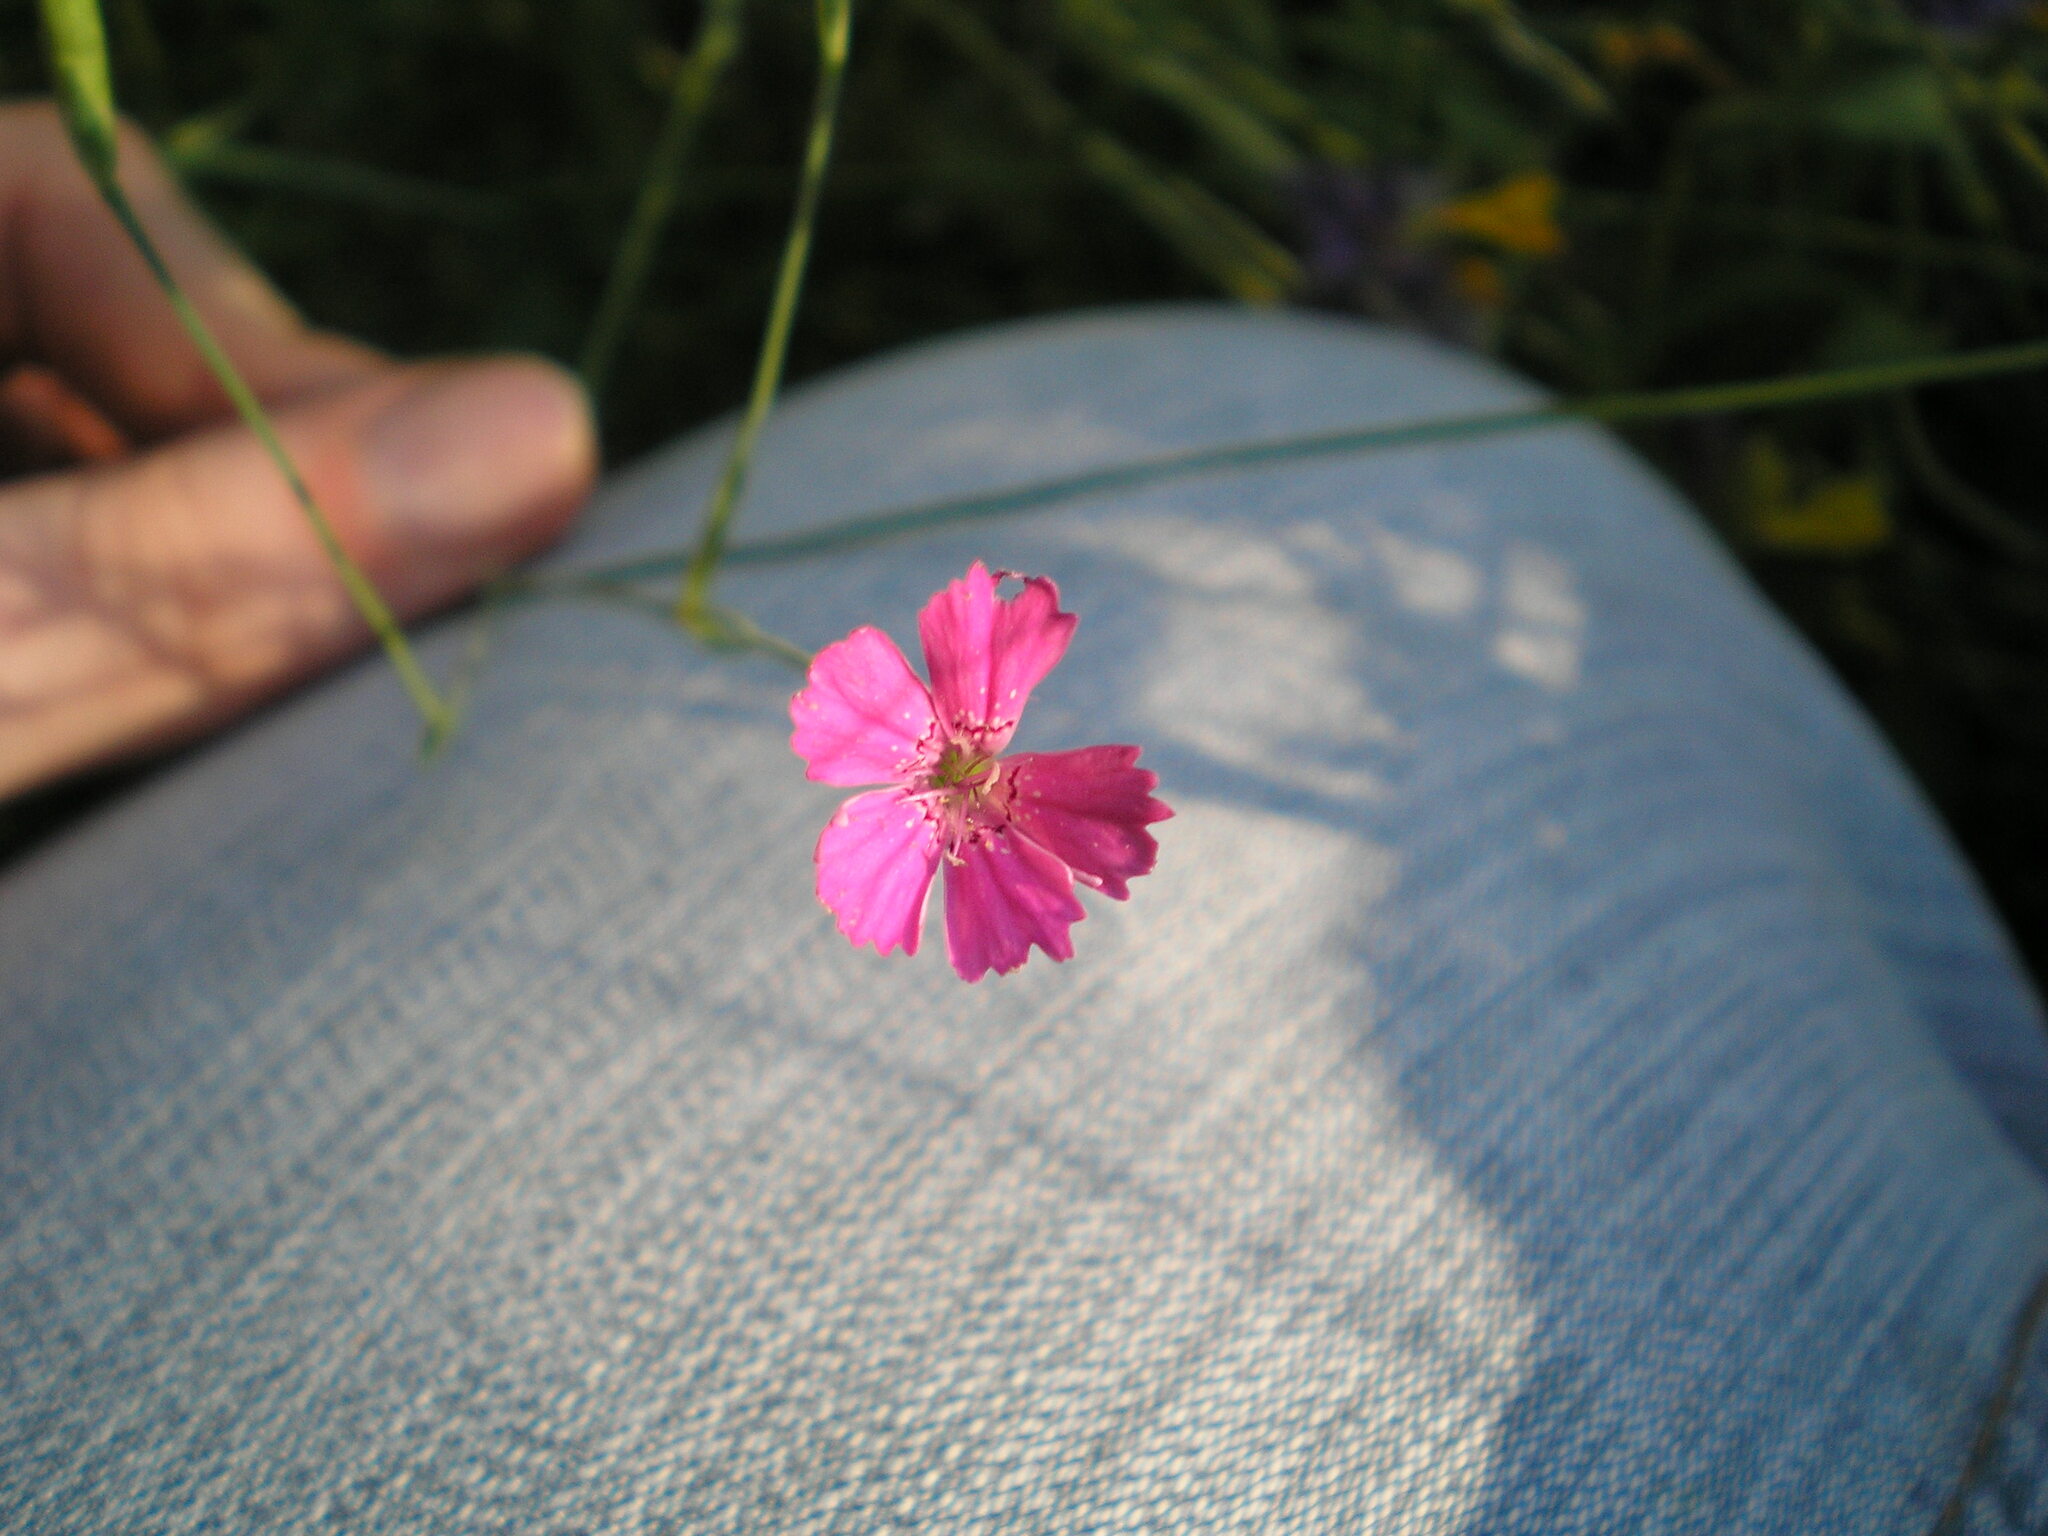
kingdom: Plantae
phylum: Tracheophyta
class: Magnoliopsida
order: Caryophyllales
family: Caryophyllaceae
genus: Dianthus
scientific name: Dianthus deltoides
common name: Maiden pink
